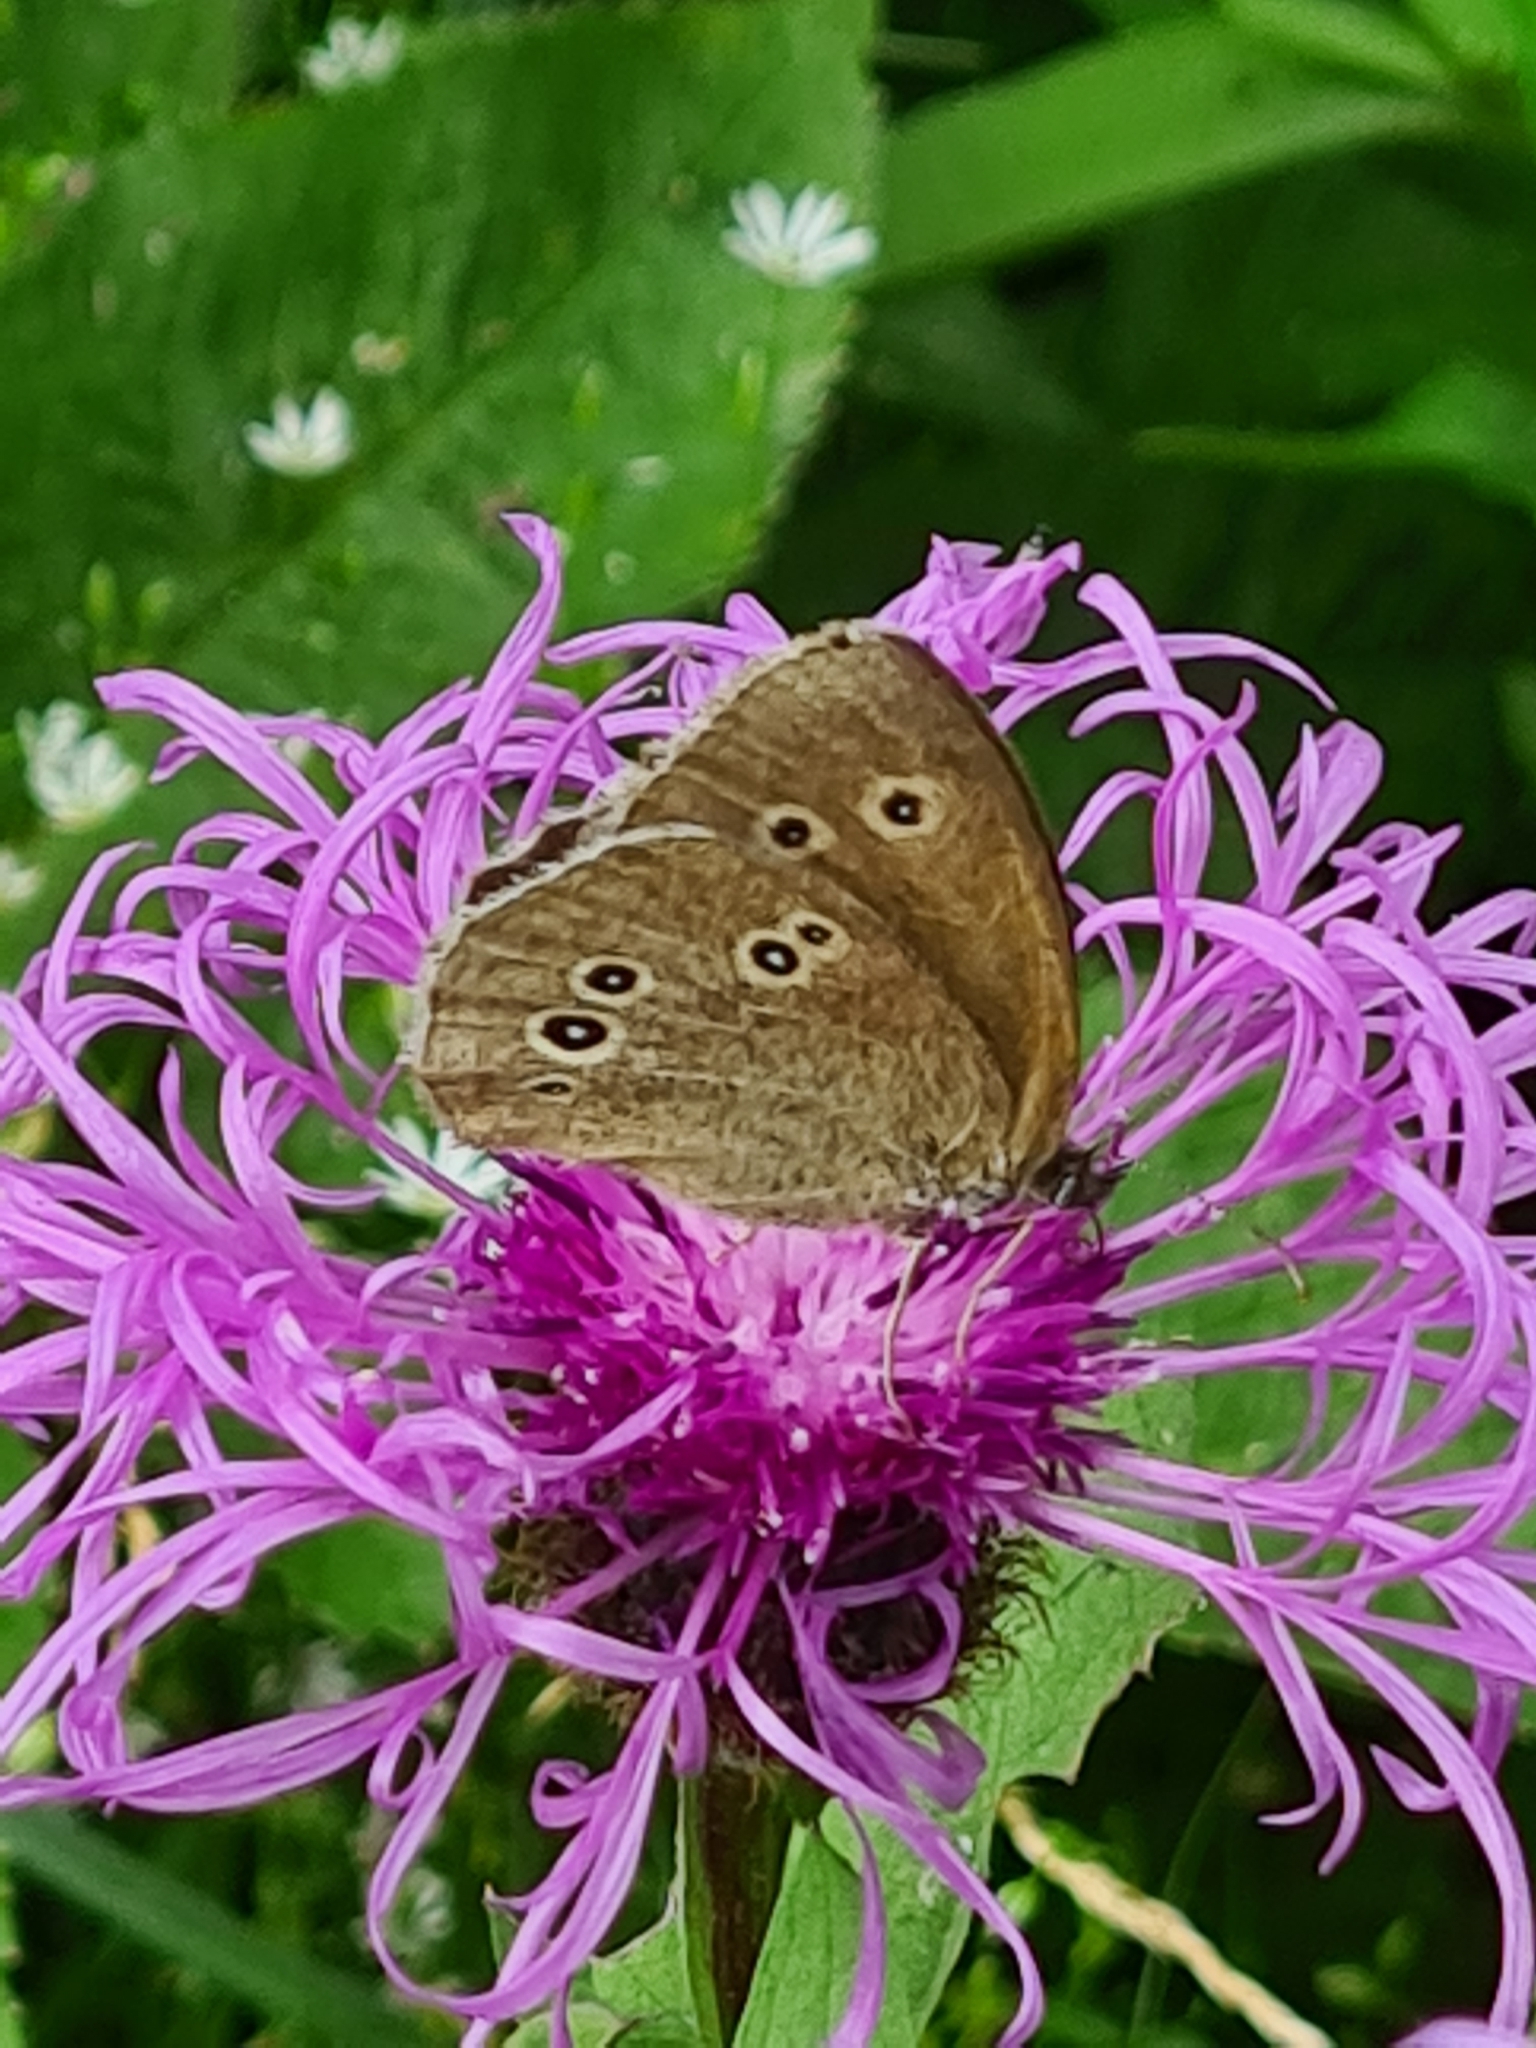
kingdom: Animalia
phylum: Arthropoda
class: Insecta
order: Lepidoptera
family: Nymphalidae
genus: Aphantopus
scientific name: Aphantopus hyperantus
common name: Ringlet
